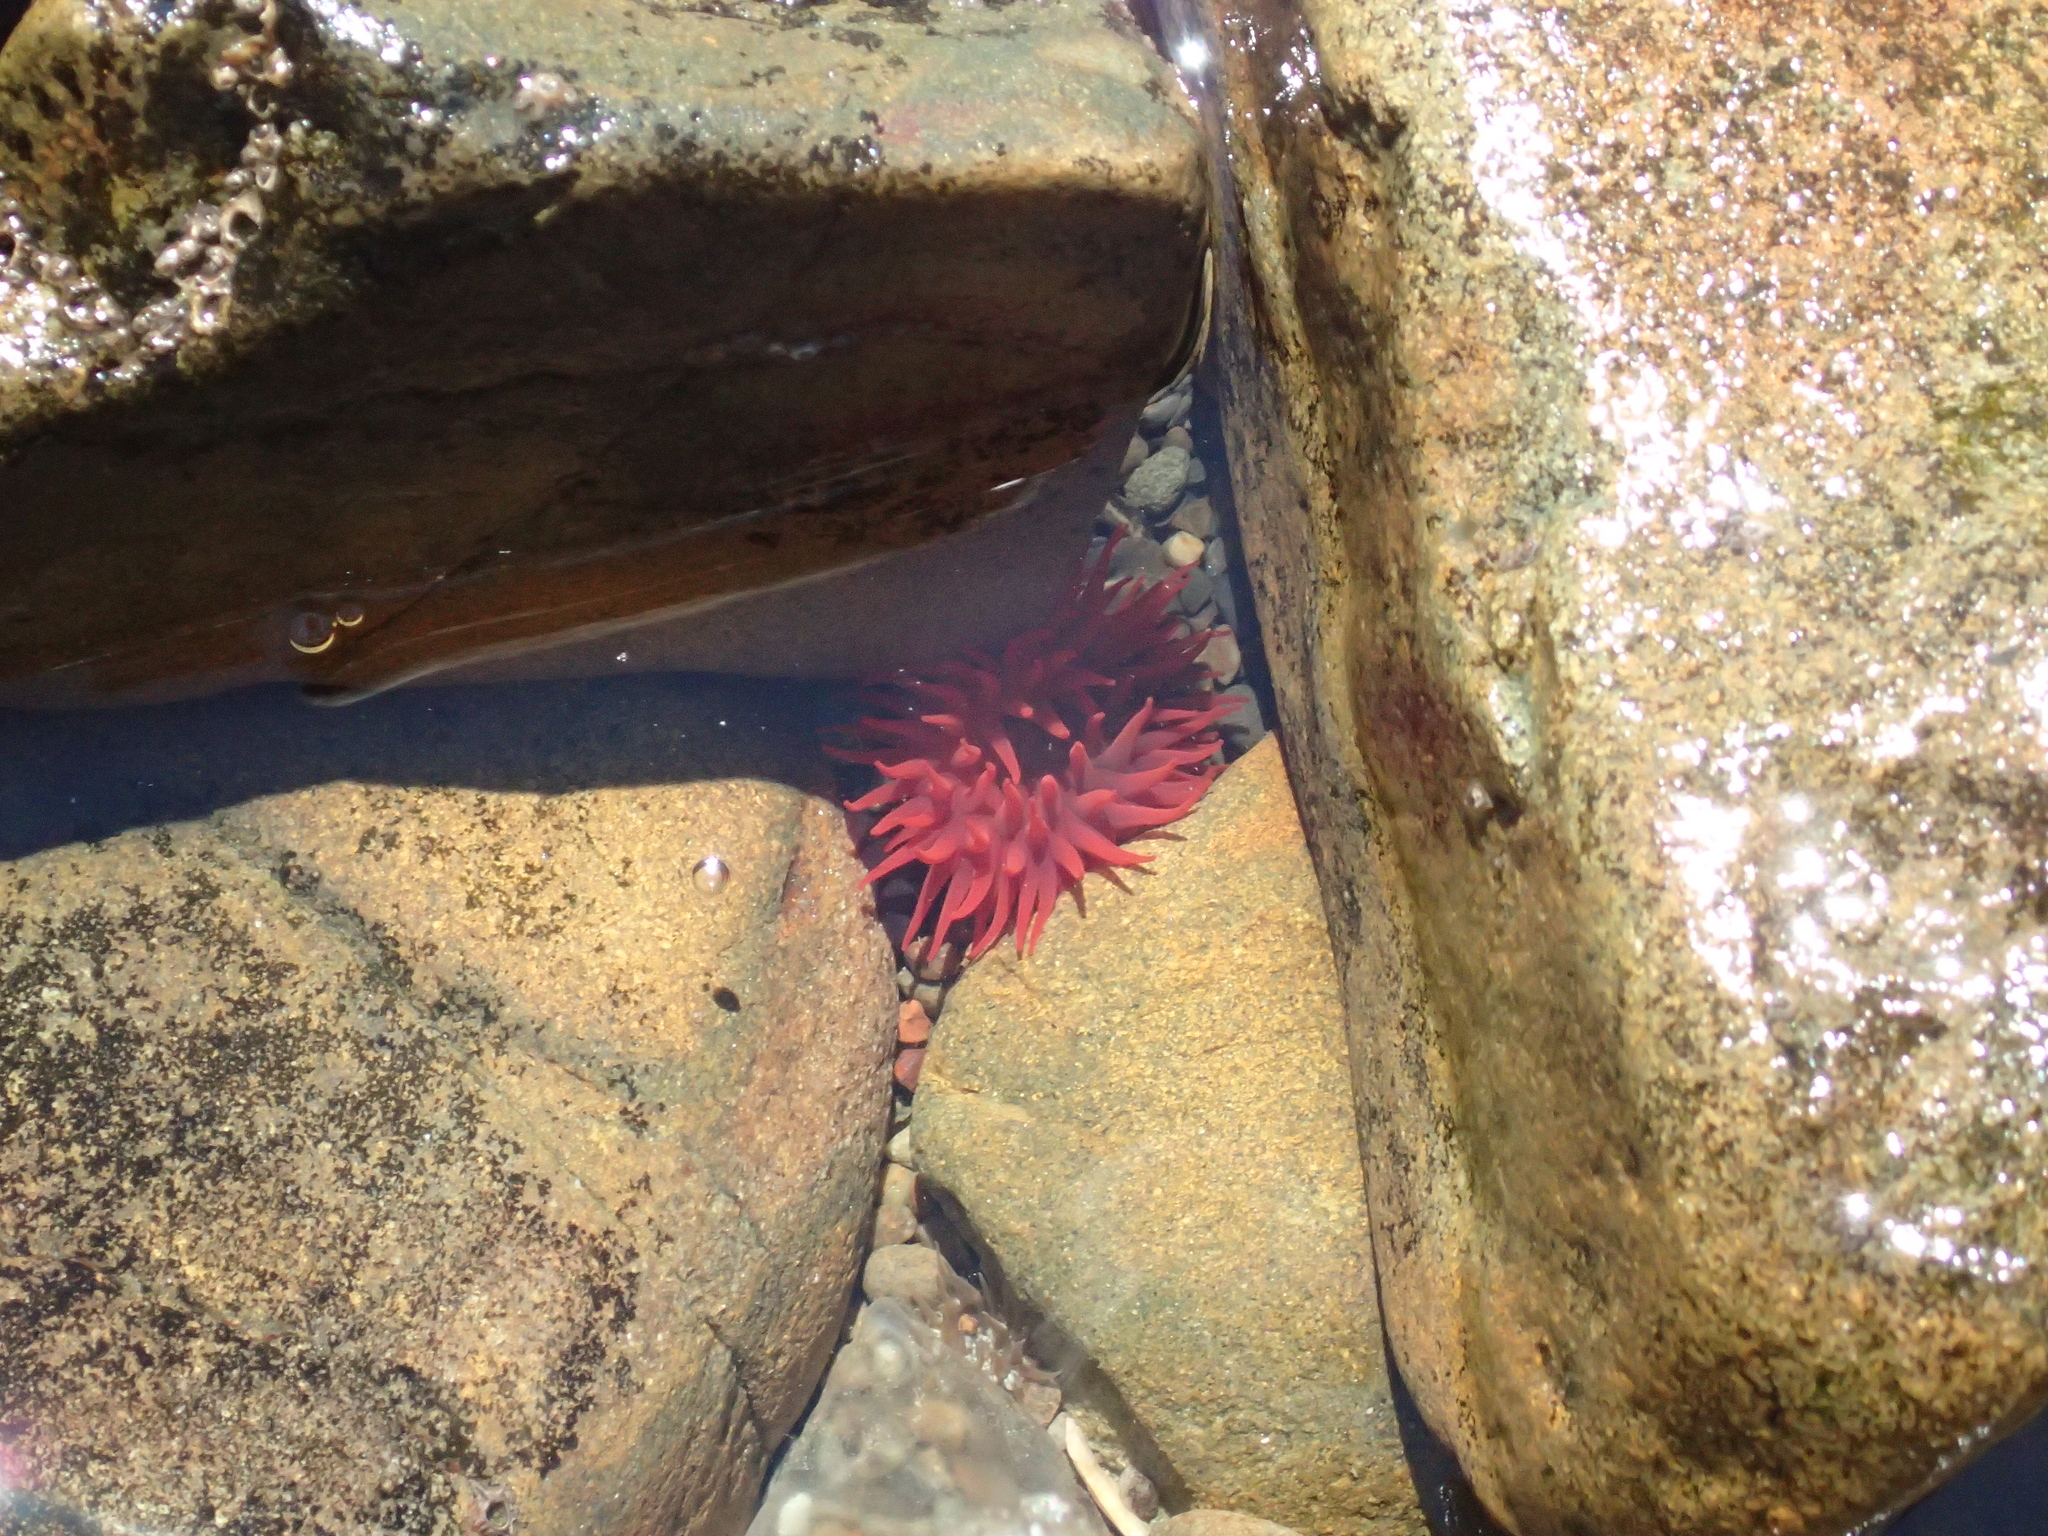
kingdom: Animalia
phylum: Cnidaria
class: Anthozoa
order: Actiniaria
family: Actiniidae
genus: Actinia
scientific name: Actinia tenebrosa
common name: Waratah anemone
